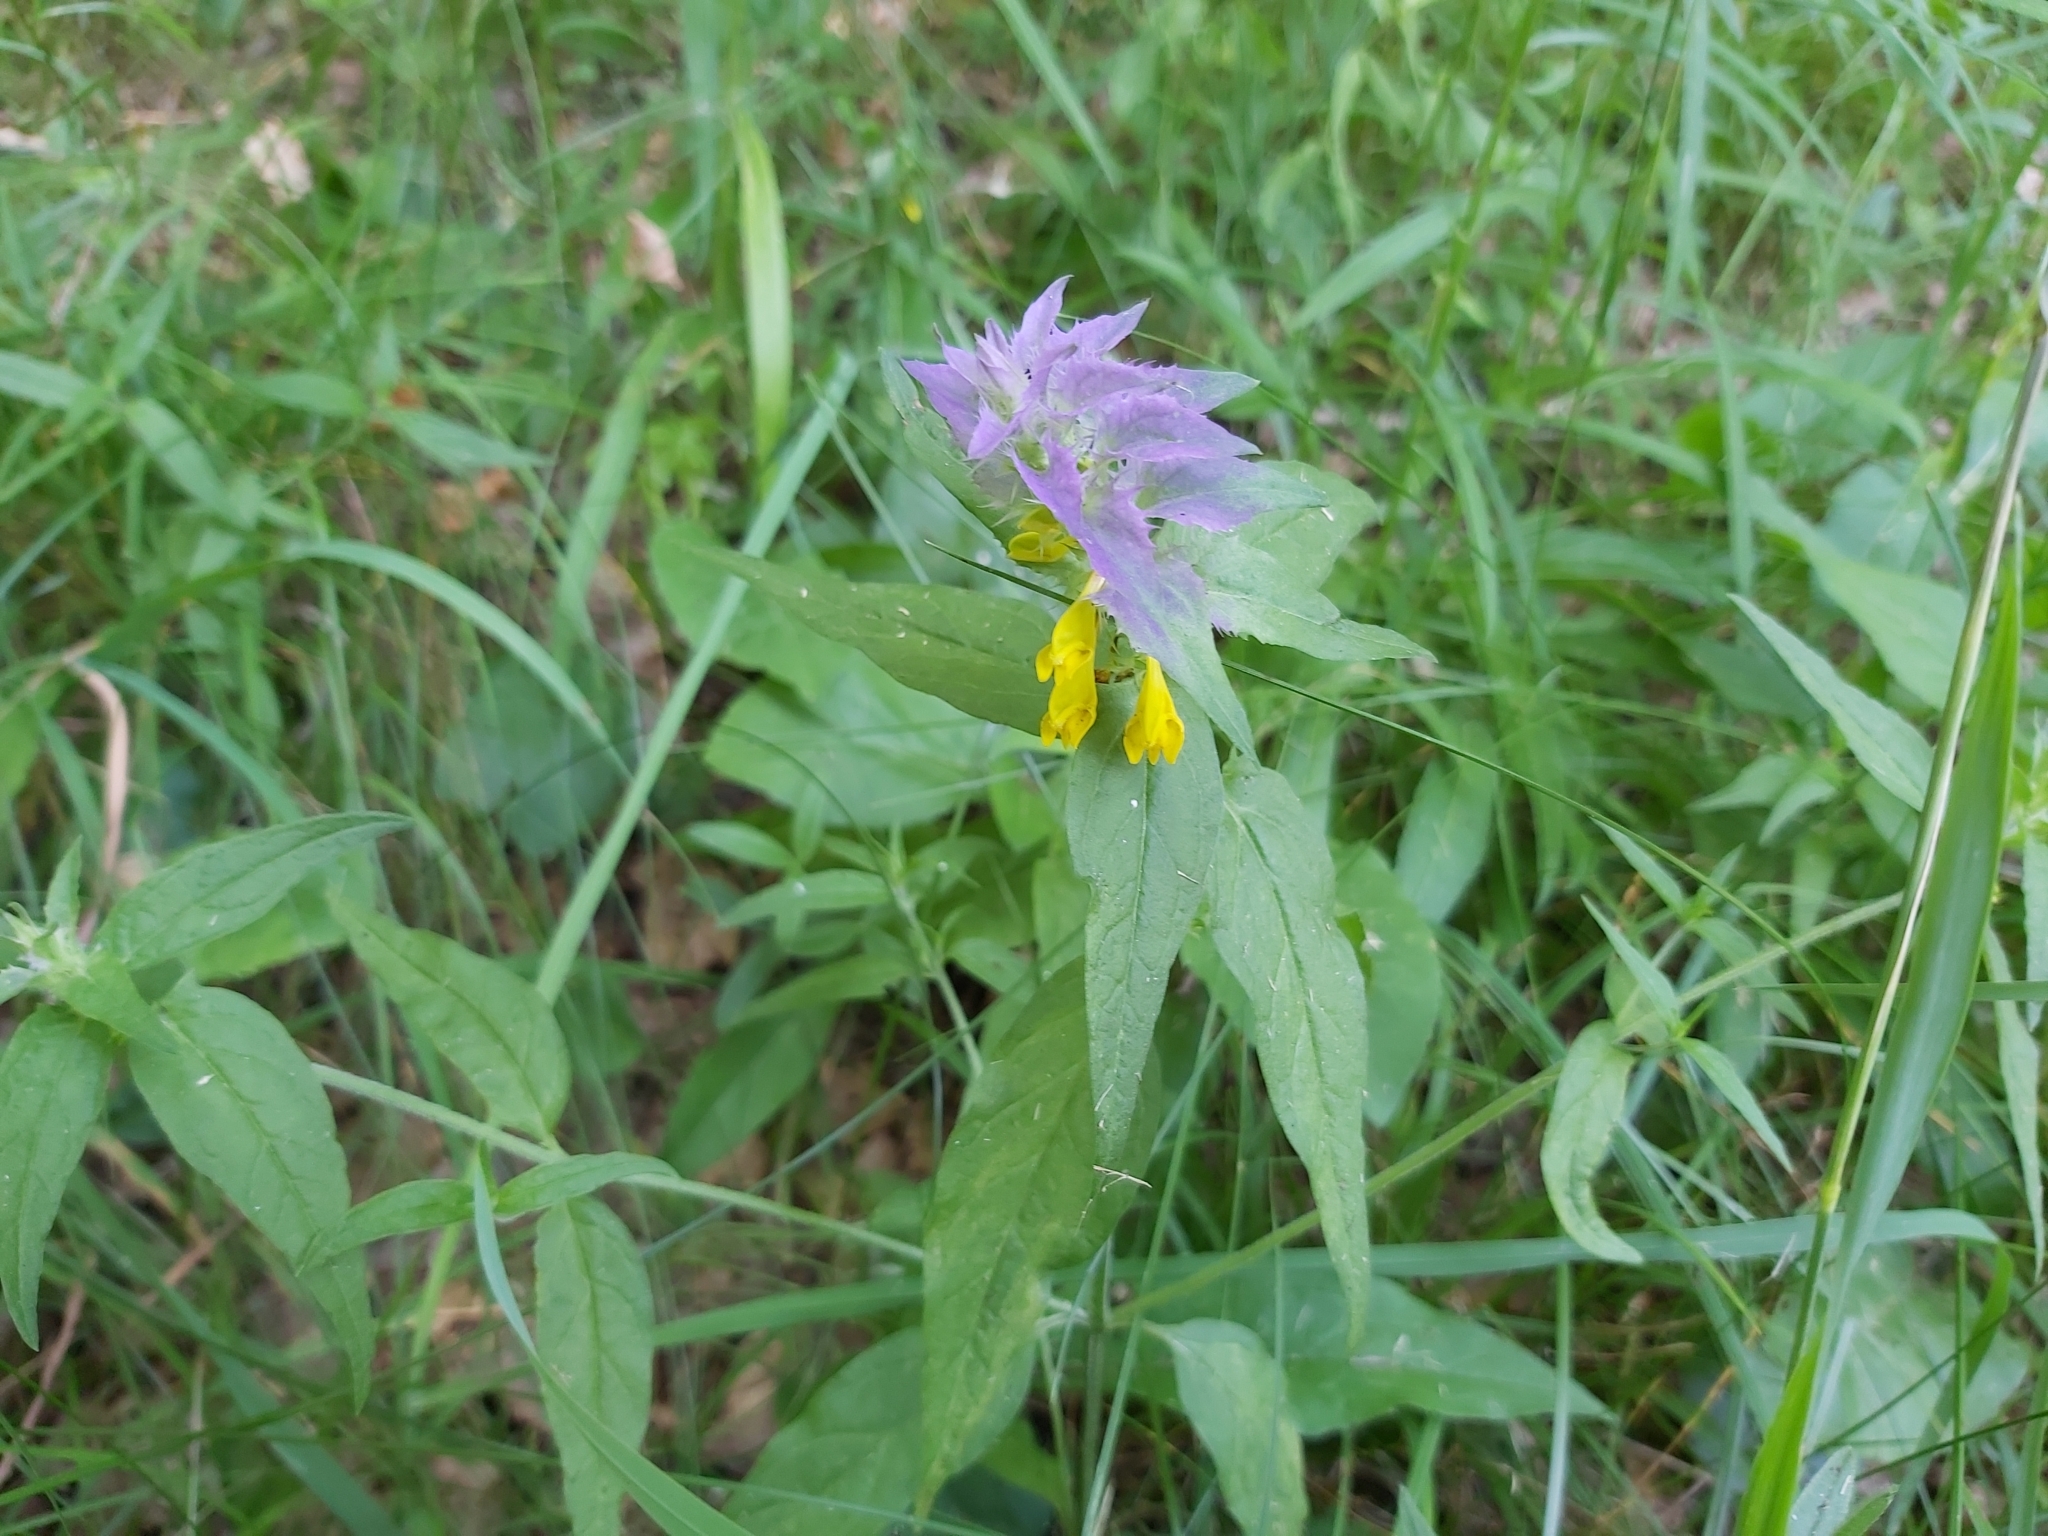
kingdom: Plantae
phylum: Tracheophyta
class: Magnoliopsida
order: Lamiales
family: Orobanchaceae
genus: Melampyrum
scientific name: Melampyrum nemorosum
